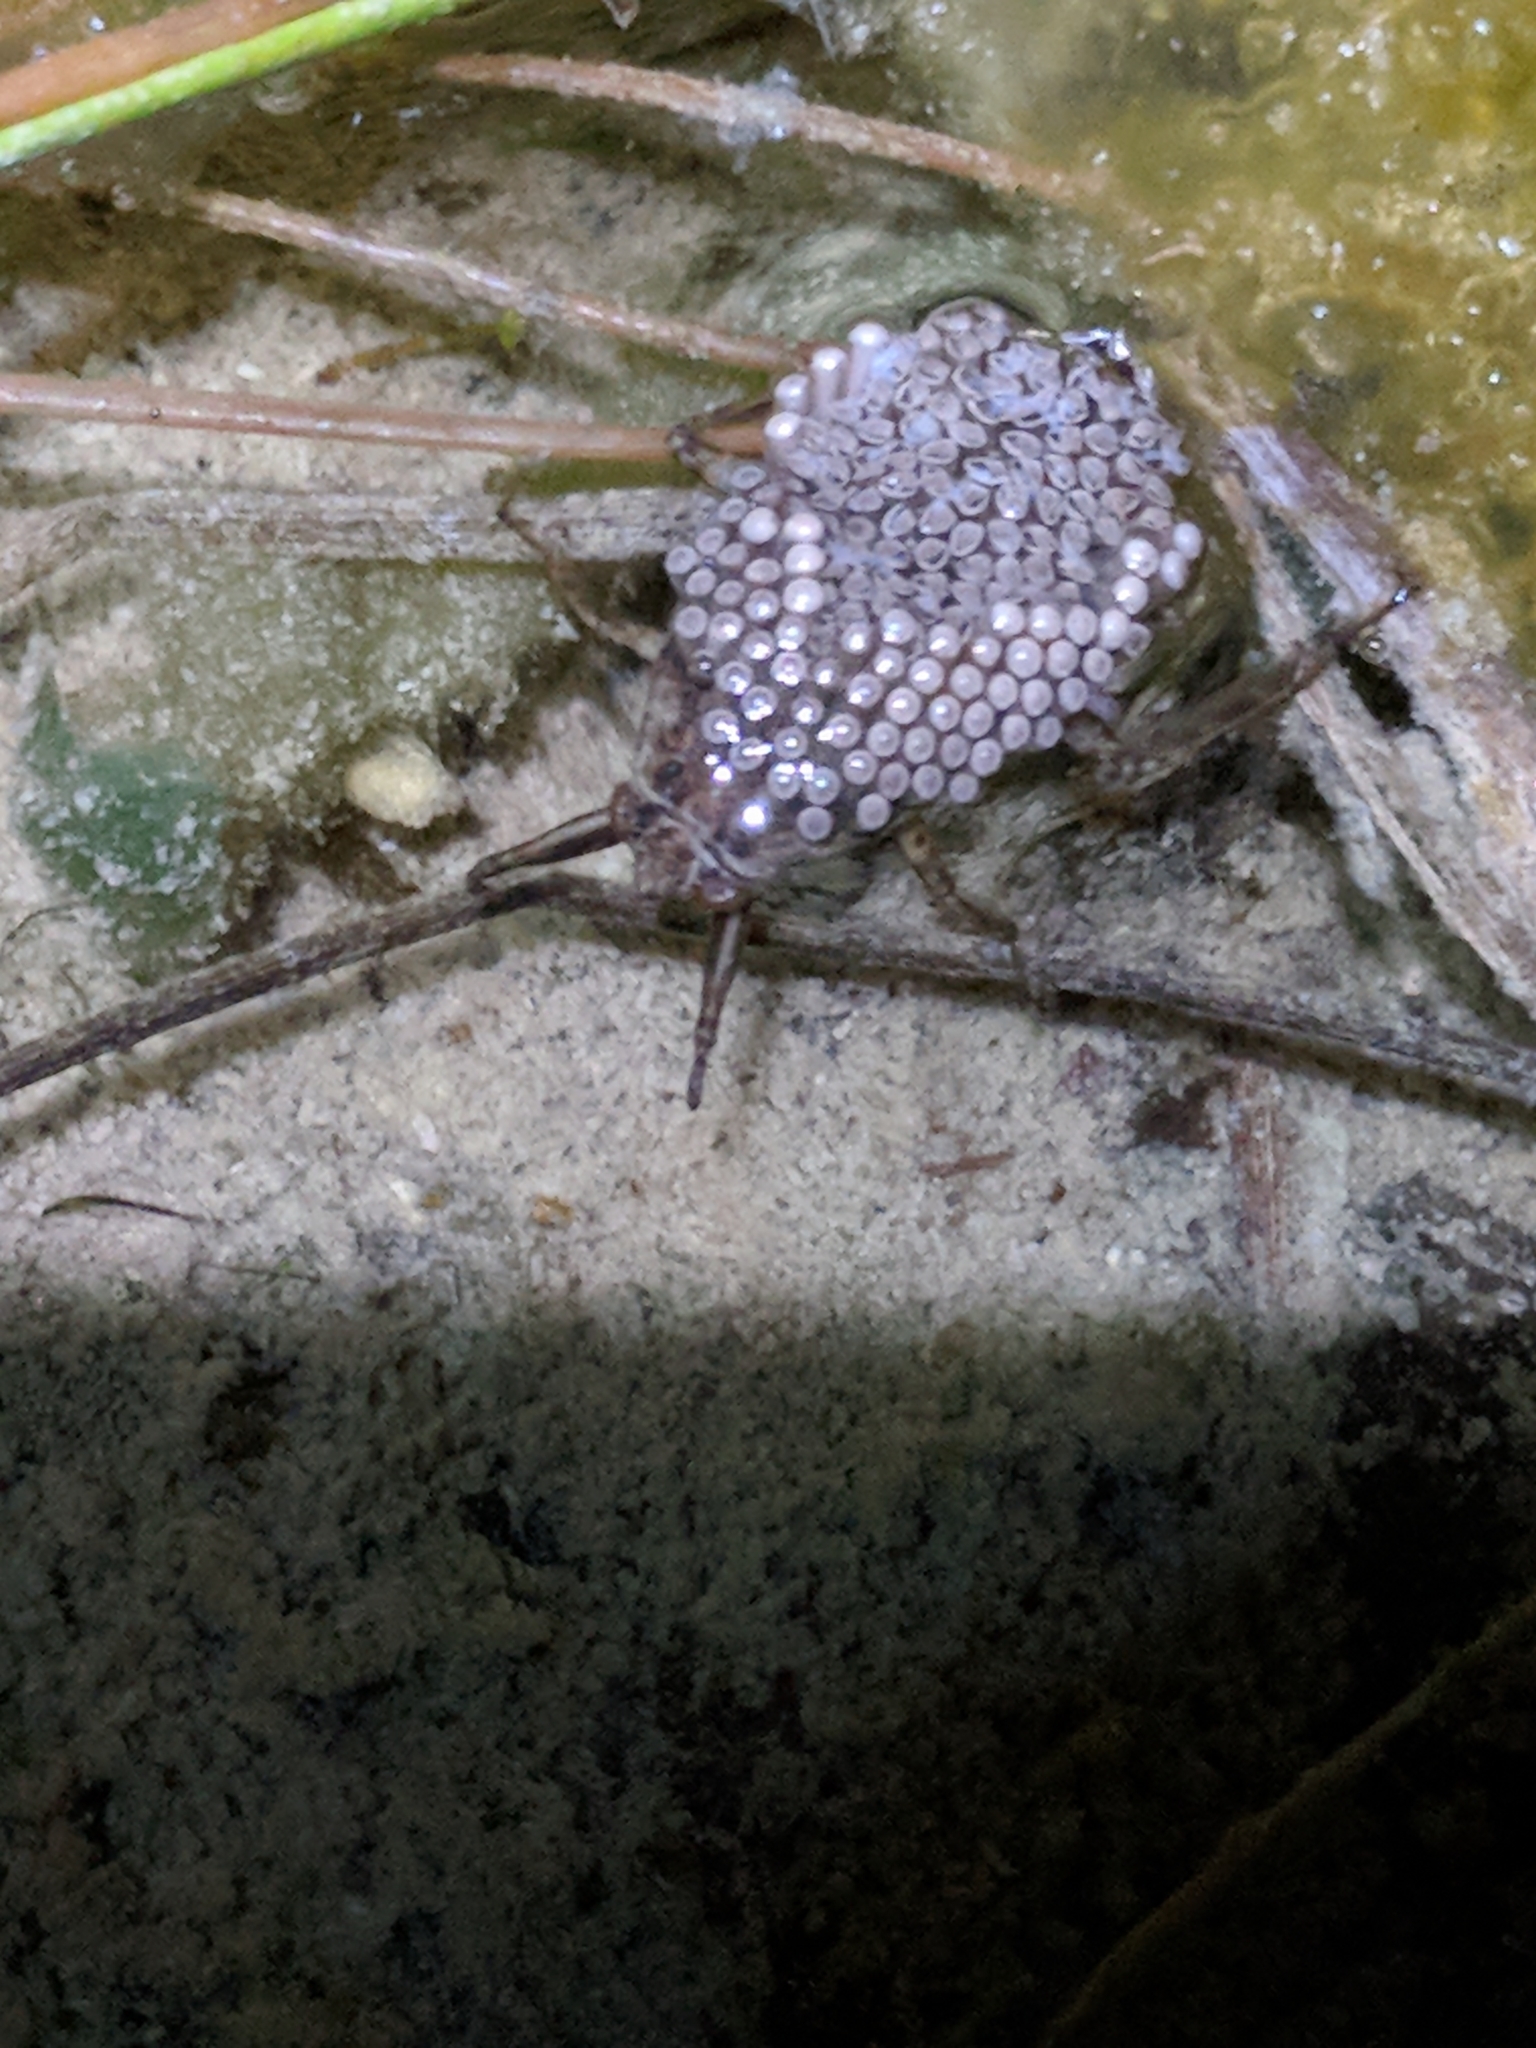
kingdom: Animalia
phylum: Arthropoda
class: Insecta
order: Hemiptera
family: Belostomatidae
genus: Belostoma
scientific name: Belostoma
